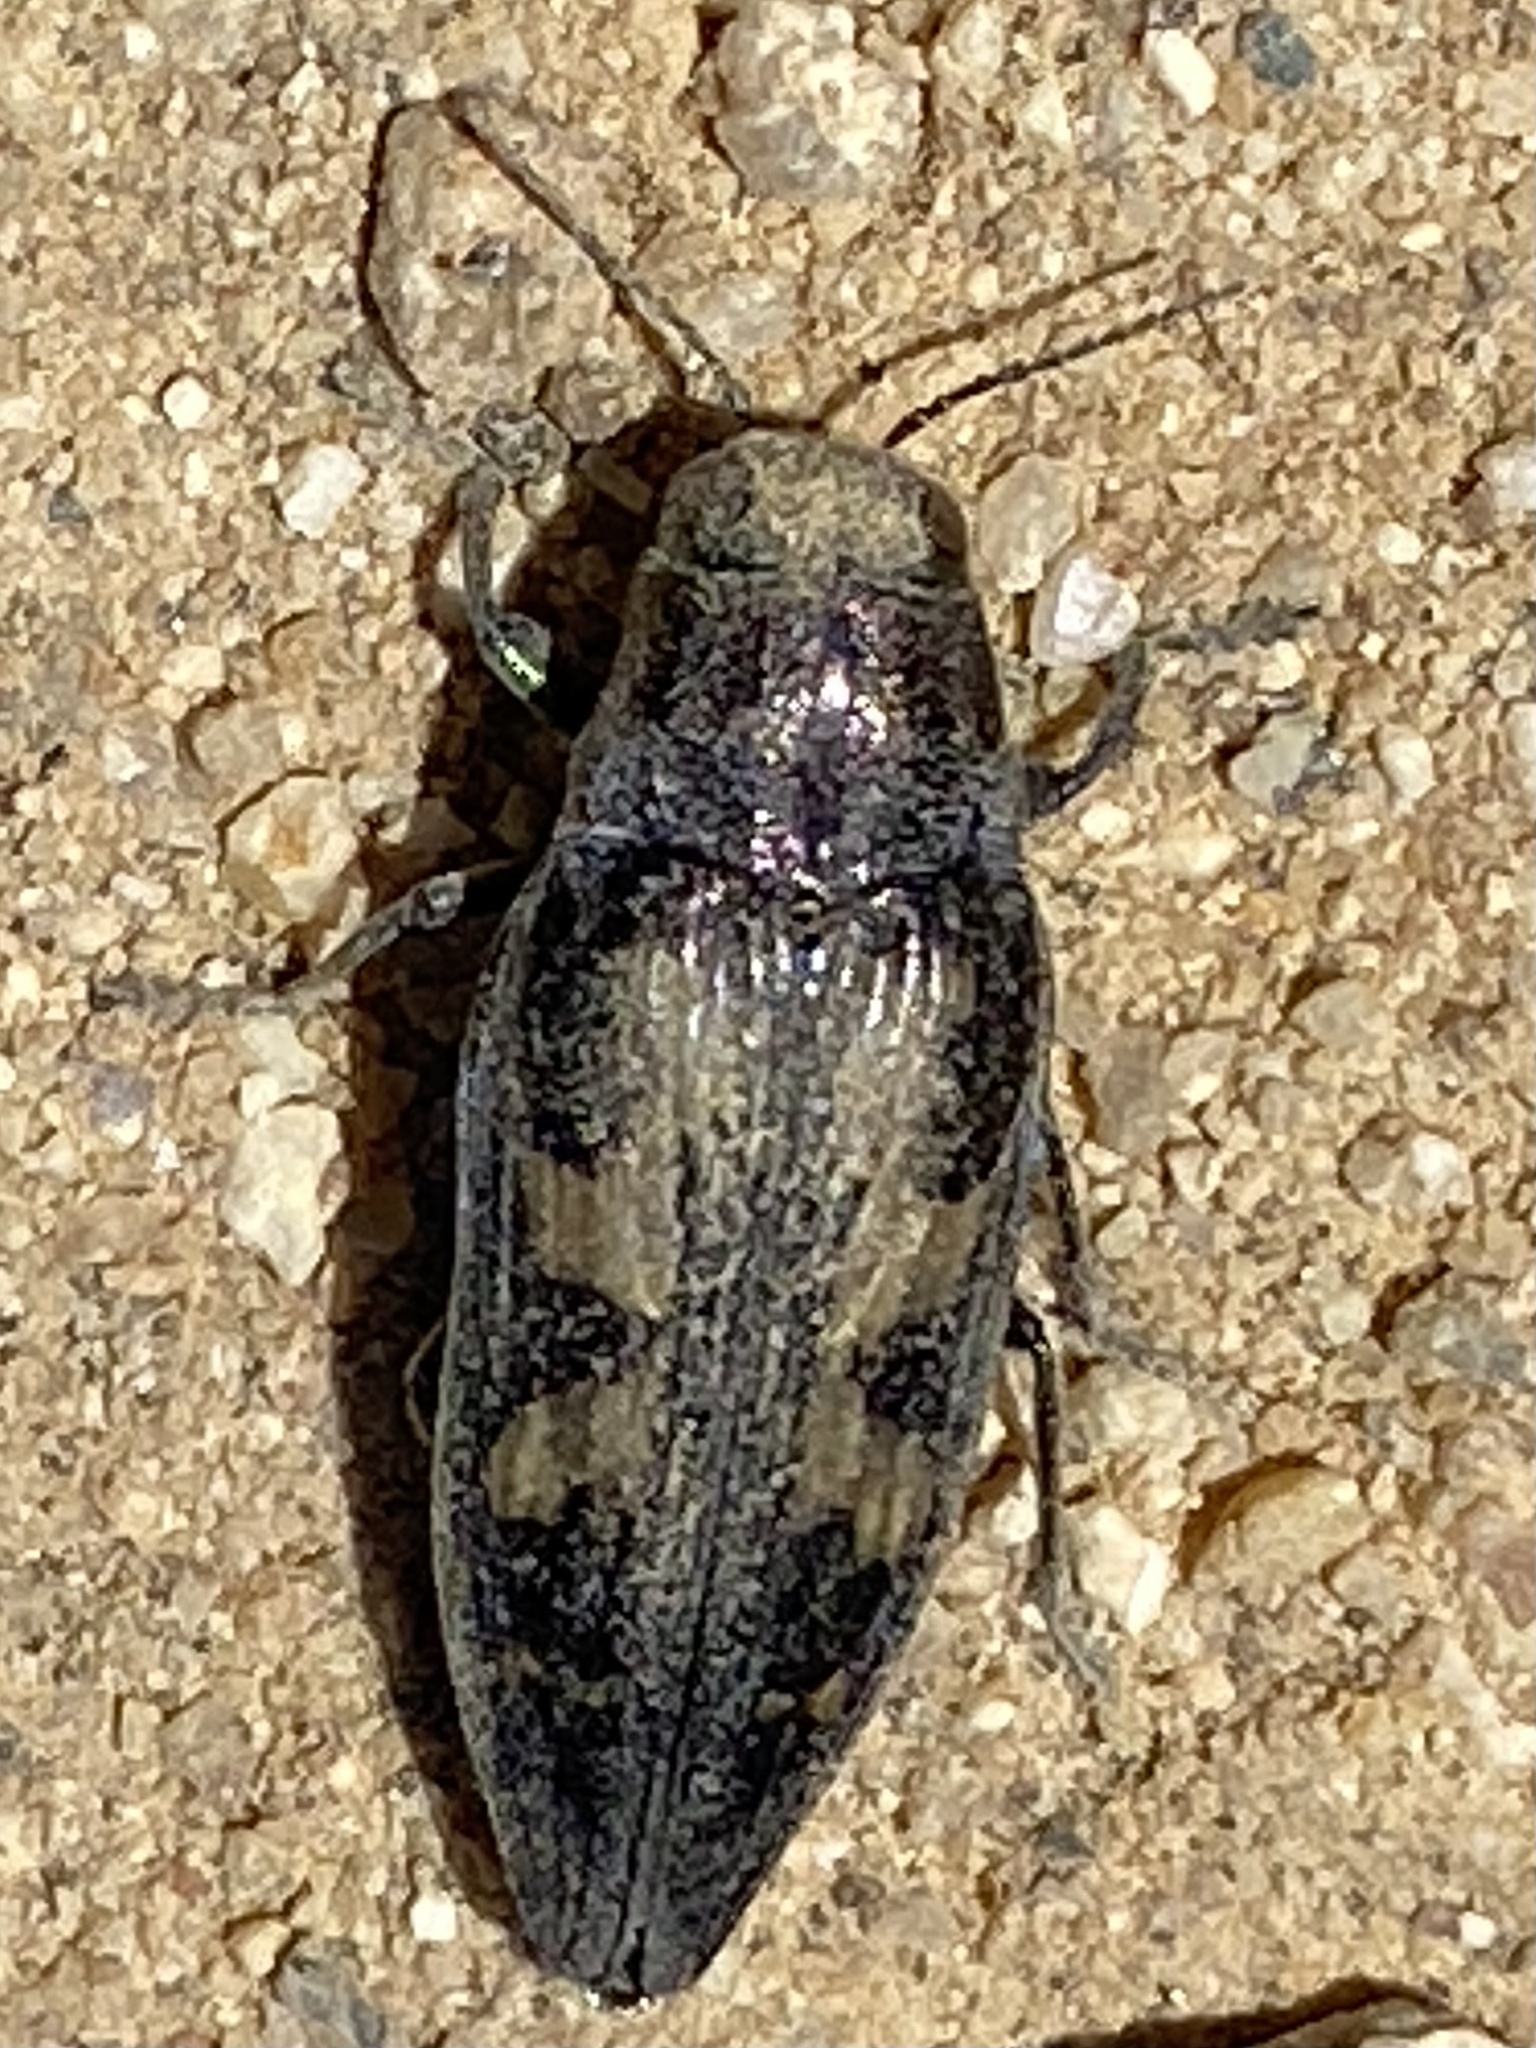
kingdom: Animalia
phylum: Arthropoda
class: Insecta
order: Coleoptera
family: Buprestidae
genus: Buprestis
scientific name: Buprestis laeviventris
